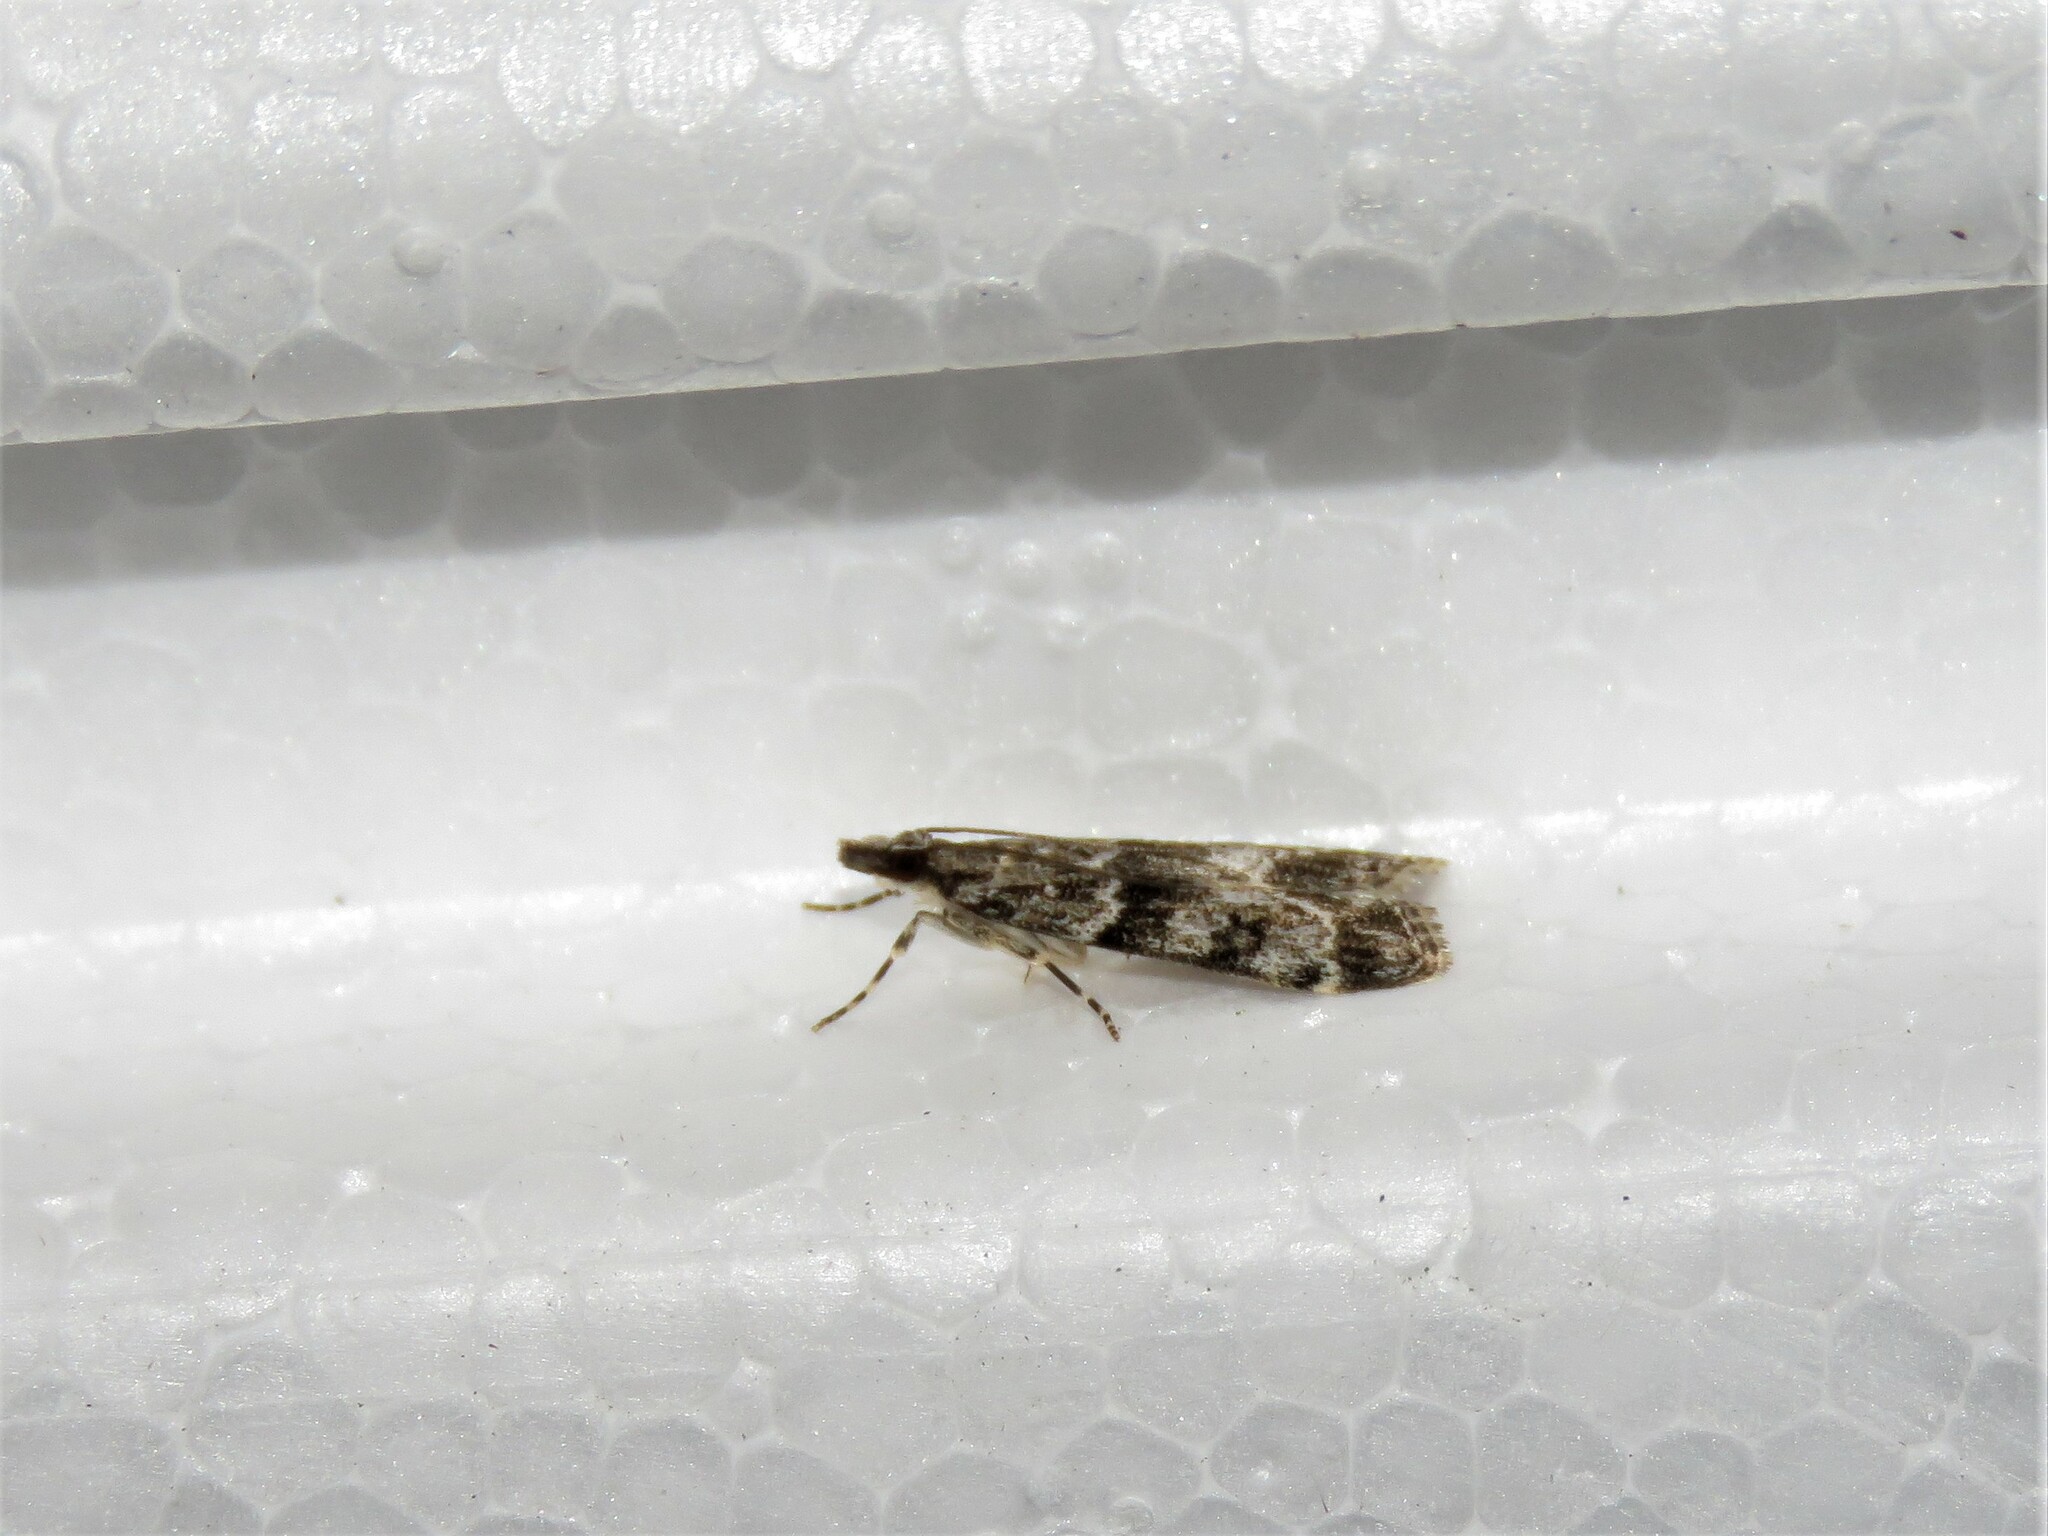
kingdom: Animalia
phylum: Arthropoda
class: Insecta
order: Lepidoptera
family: Crambidae
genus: Eudonia
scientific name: Eudonia mercurella
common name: Small grey
